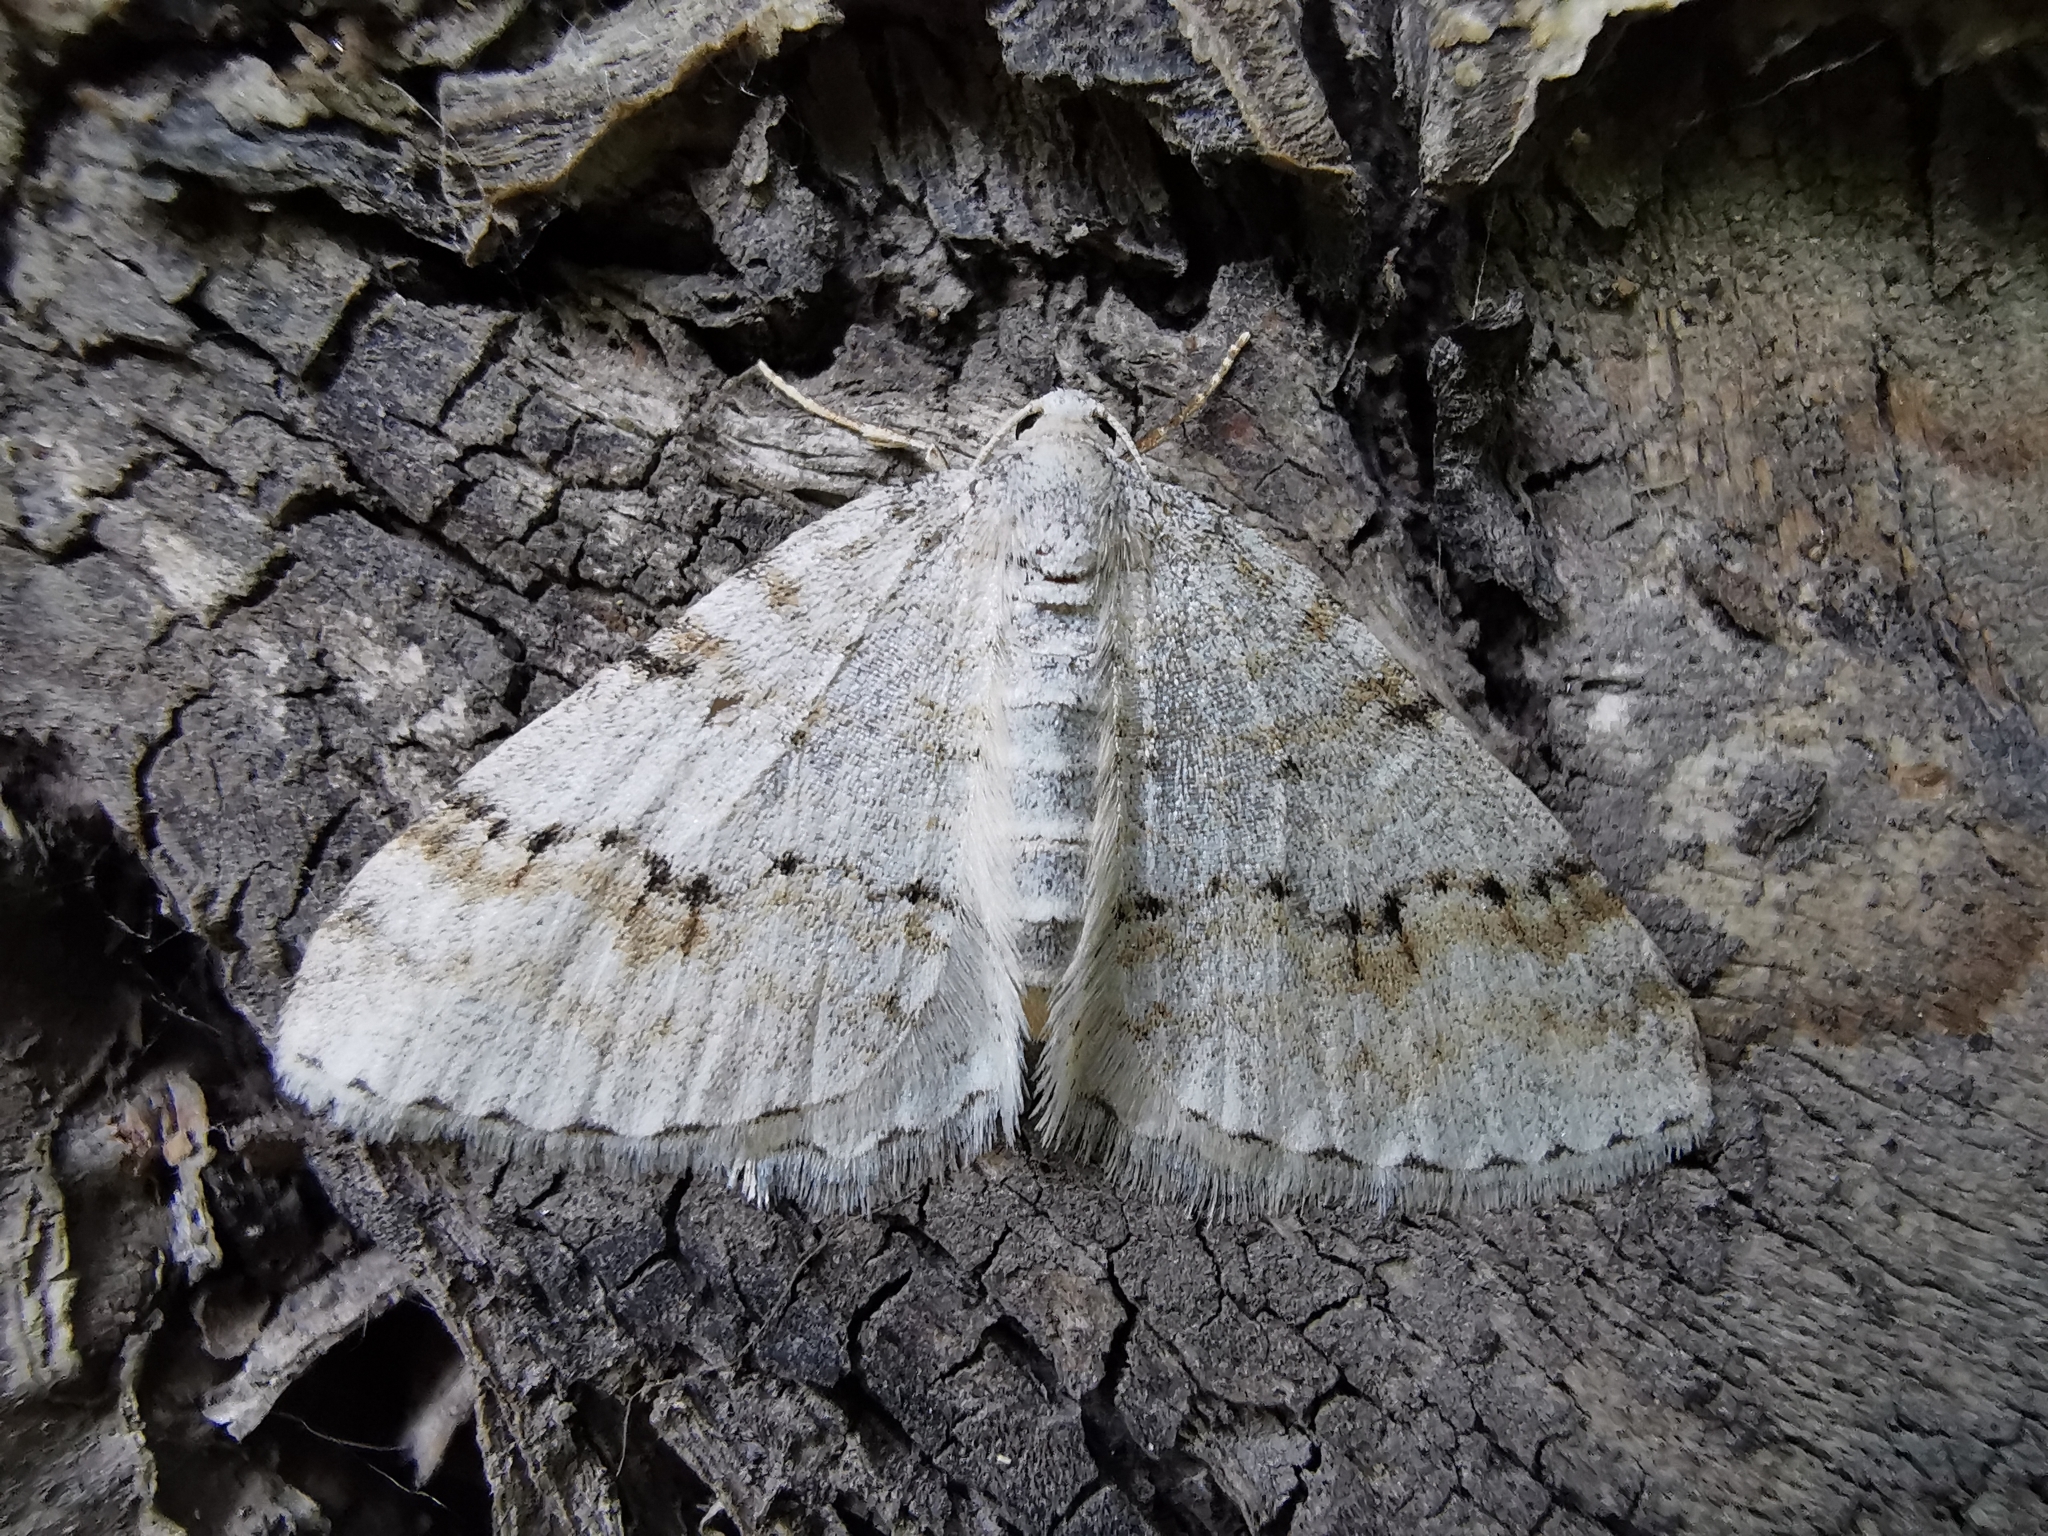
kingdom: Animalia
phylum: Arthropoda
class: Insecta
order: Lepidoptera
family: Geometridae
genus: Venusia
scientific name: Venusia cambrica
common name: Welsh wave
